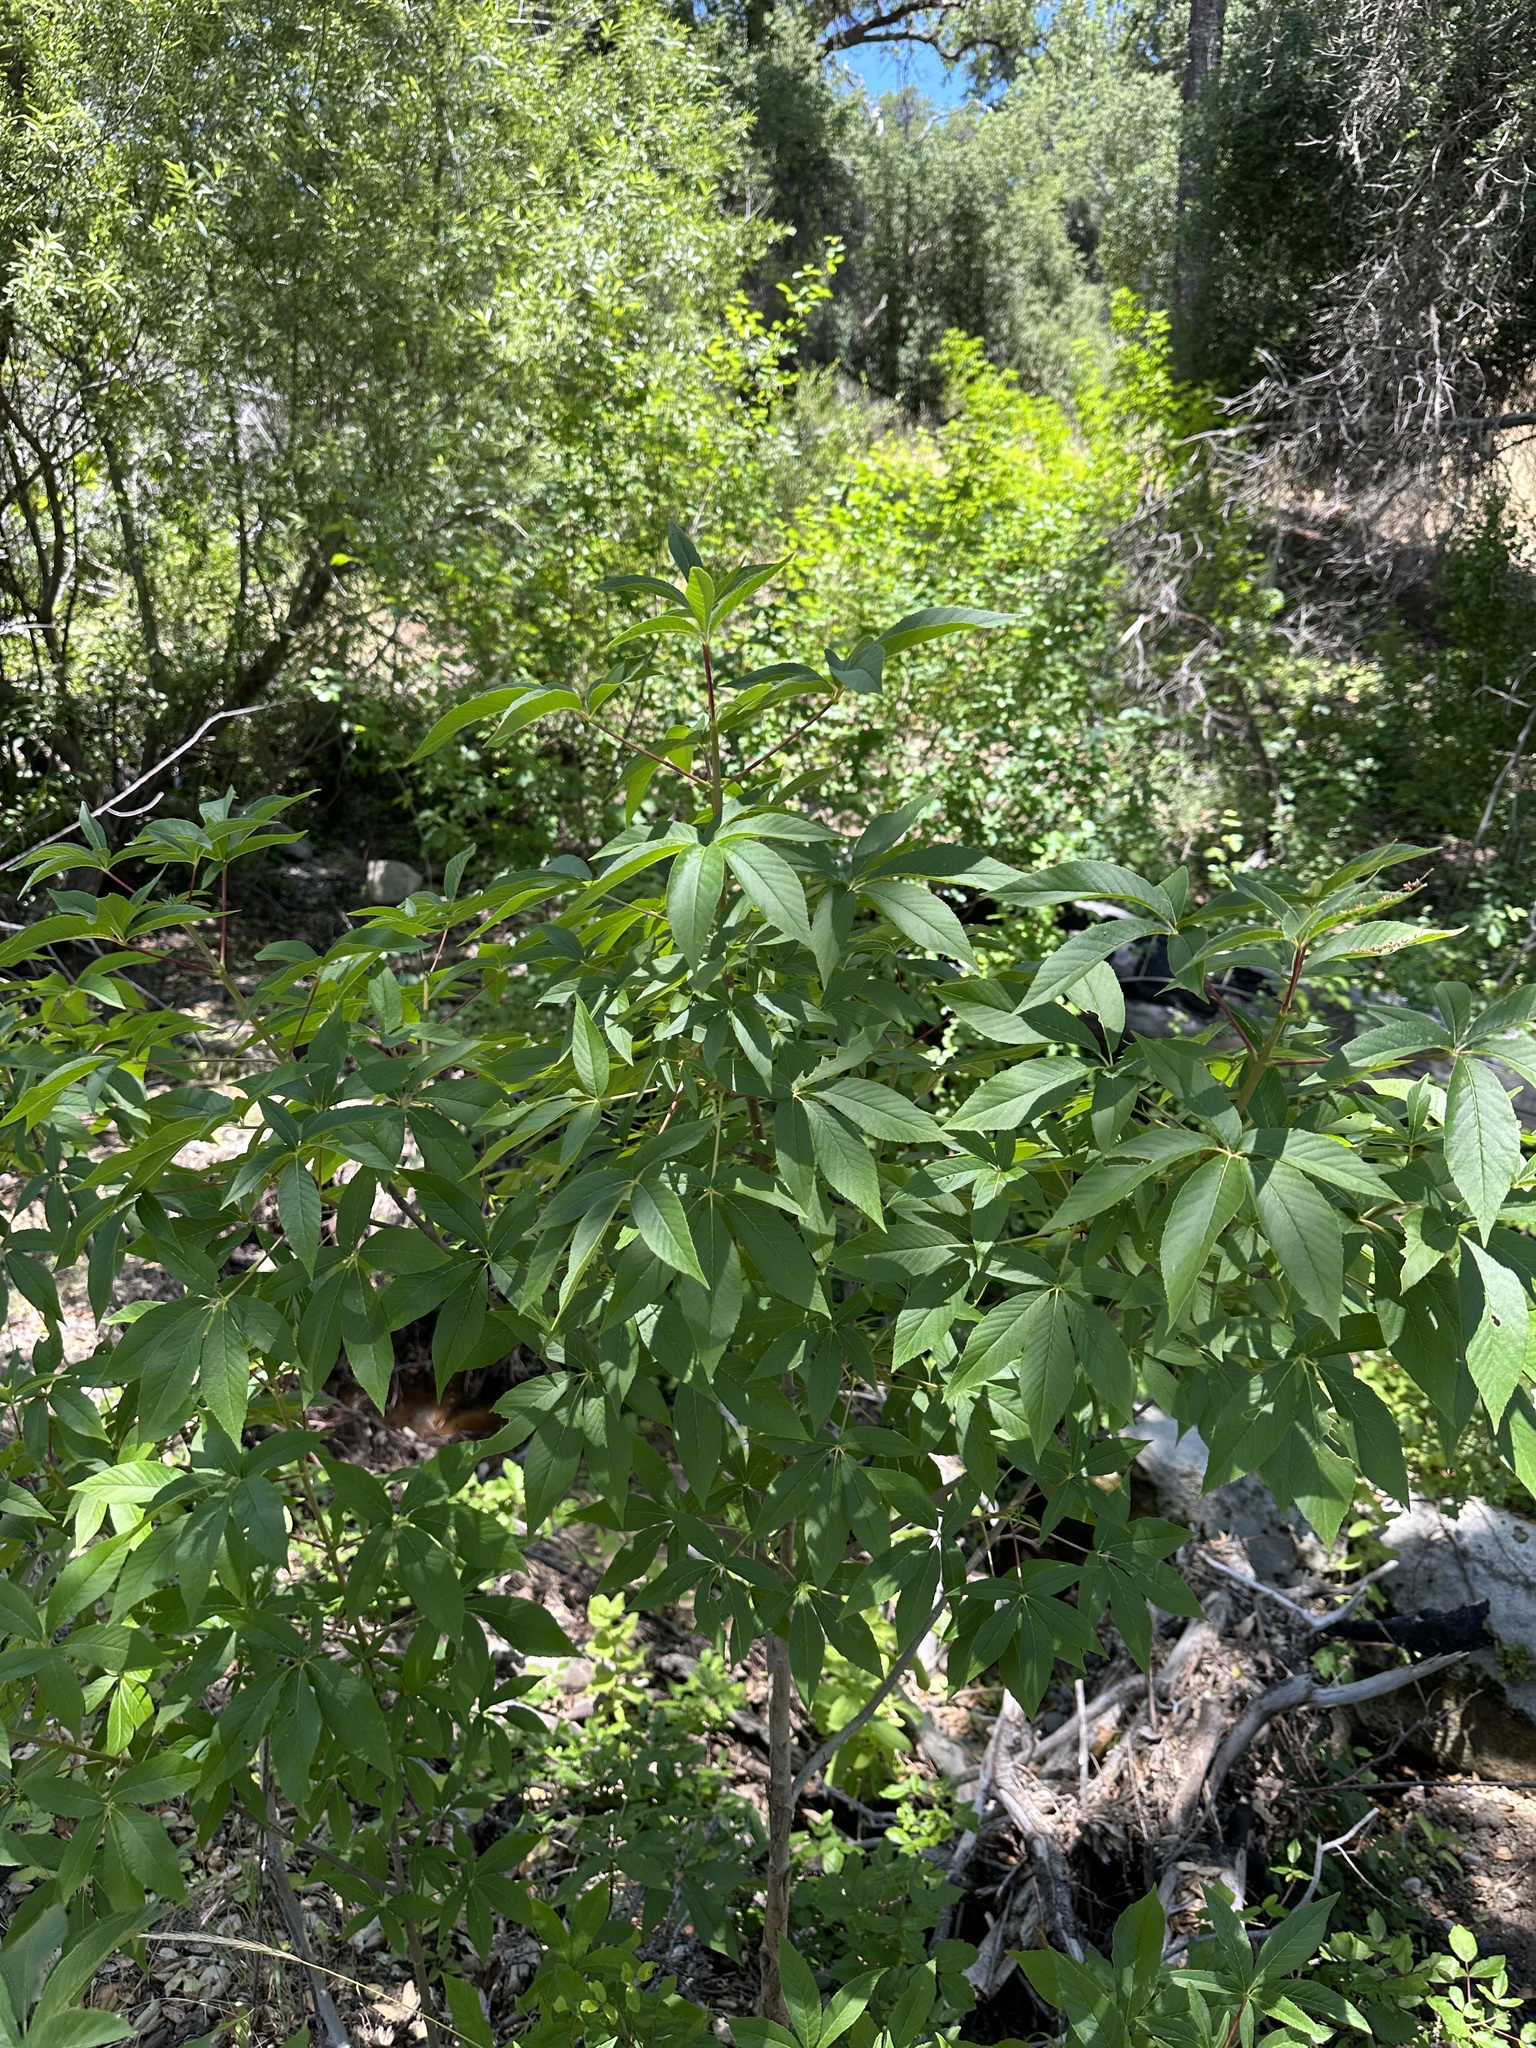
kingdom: Plantae
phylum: Tracheophyta
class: Magnoliopsida
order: Sapindales
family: Sapindaceae
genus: Aesculus
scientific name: Aesculus californica
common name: California buckeye
